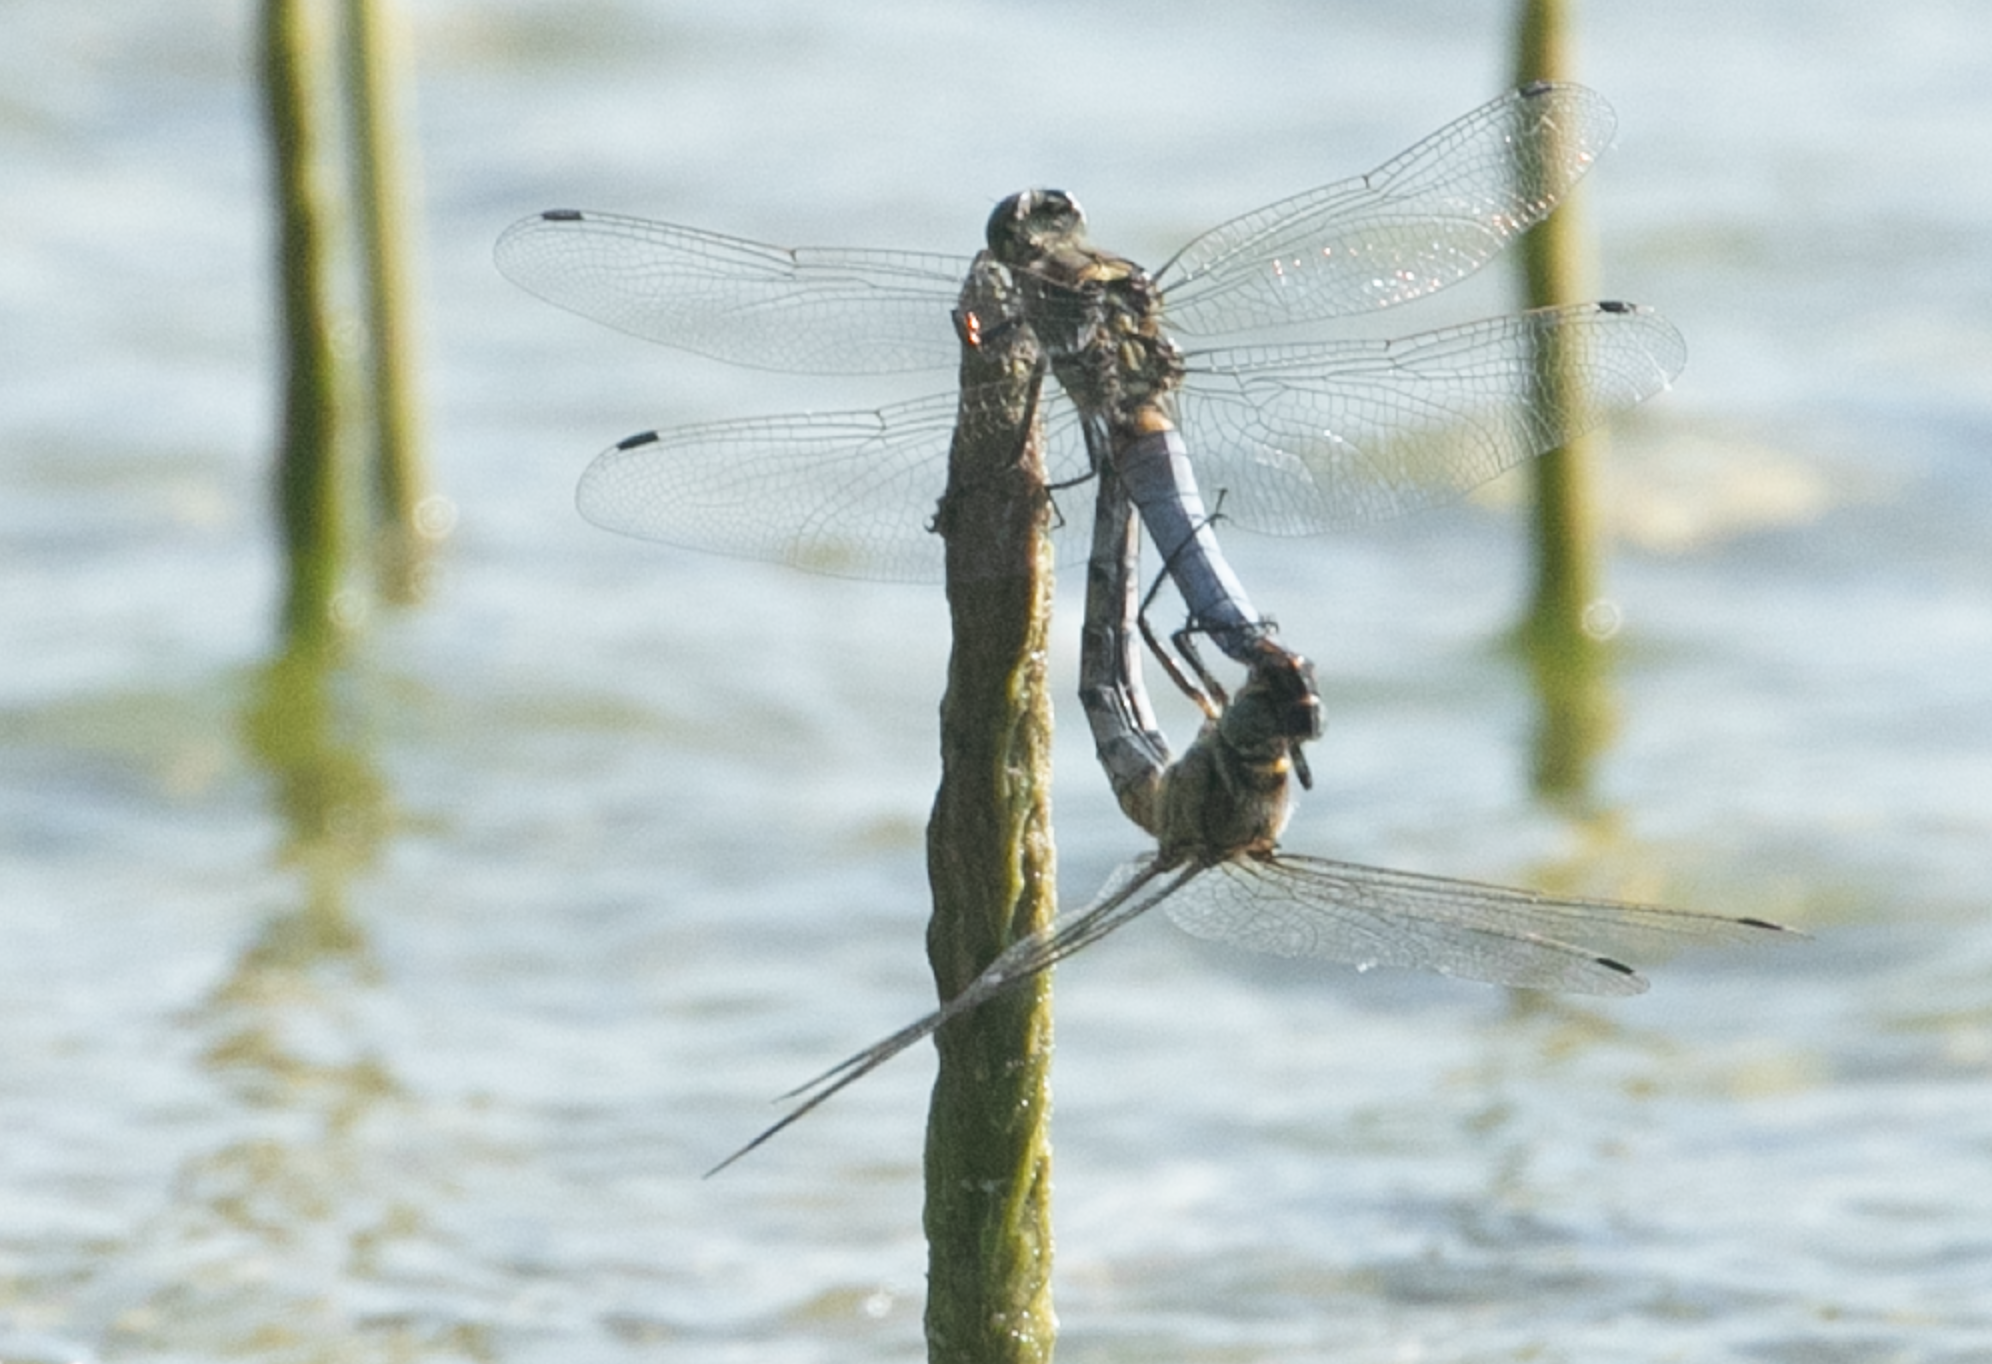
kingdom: Animalia
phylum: Arthropoda
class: Insecta
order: Odonata
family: Libellulidae
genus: Orthetrum
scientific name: Orthetrum cancellatum
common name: Black-tailed skimmer
